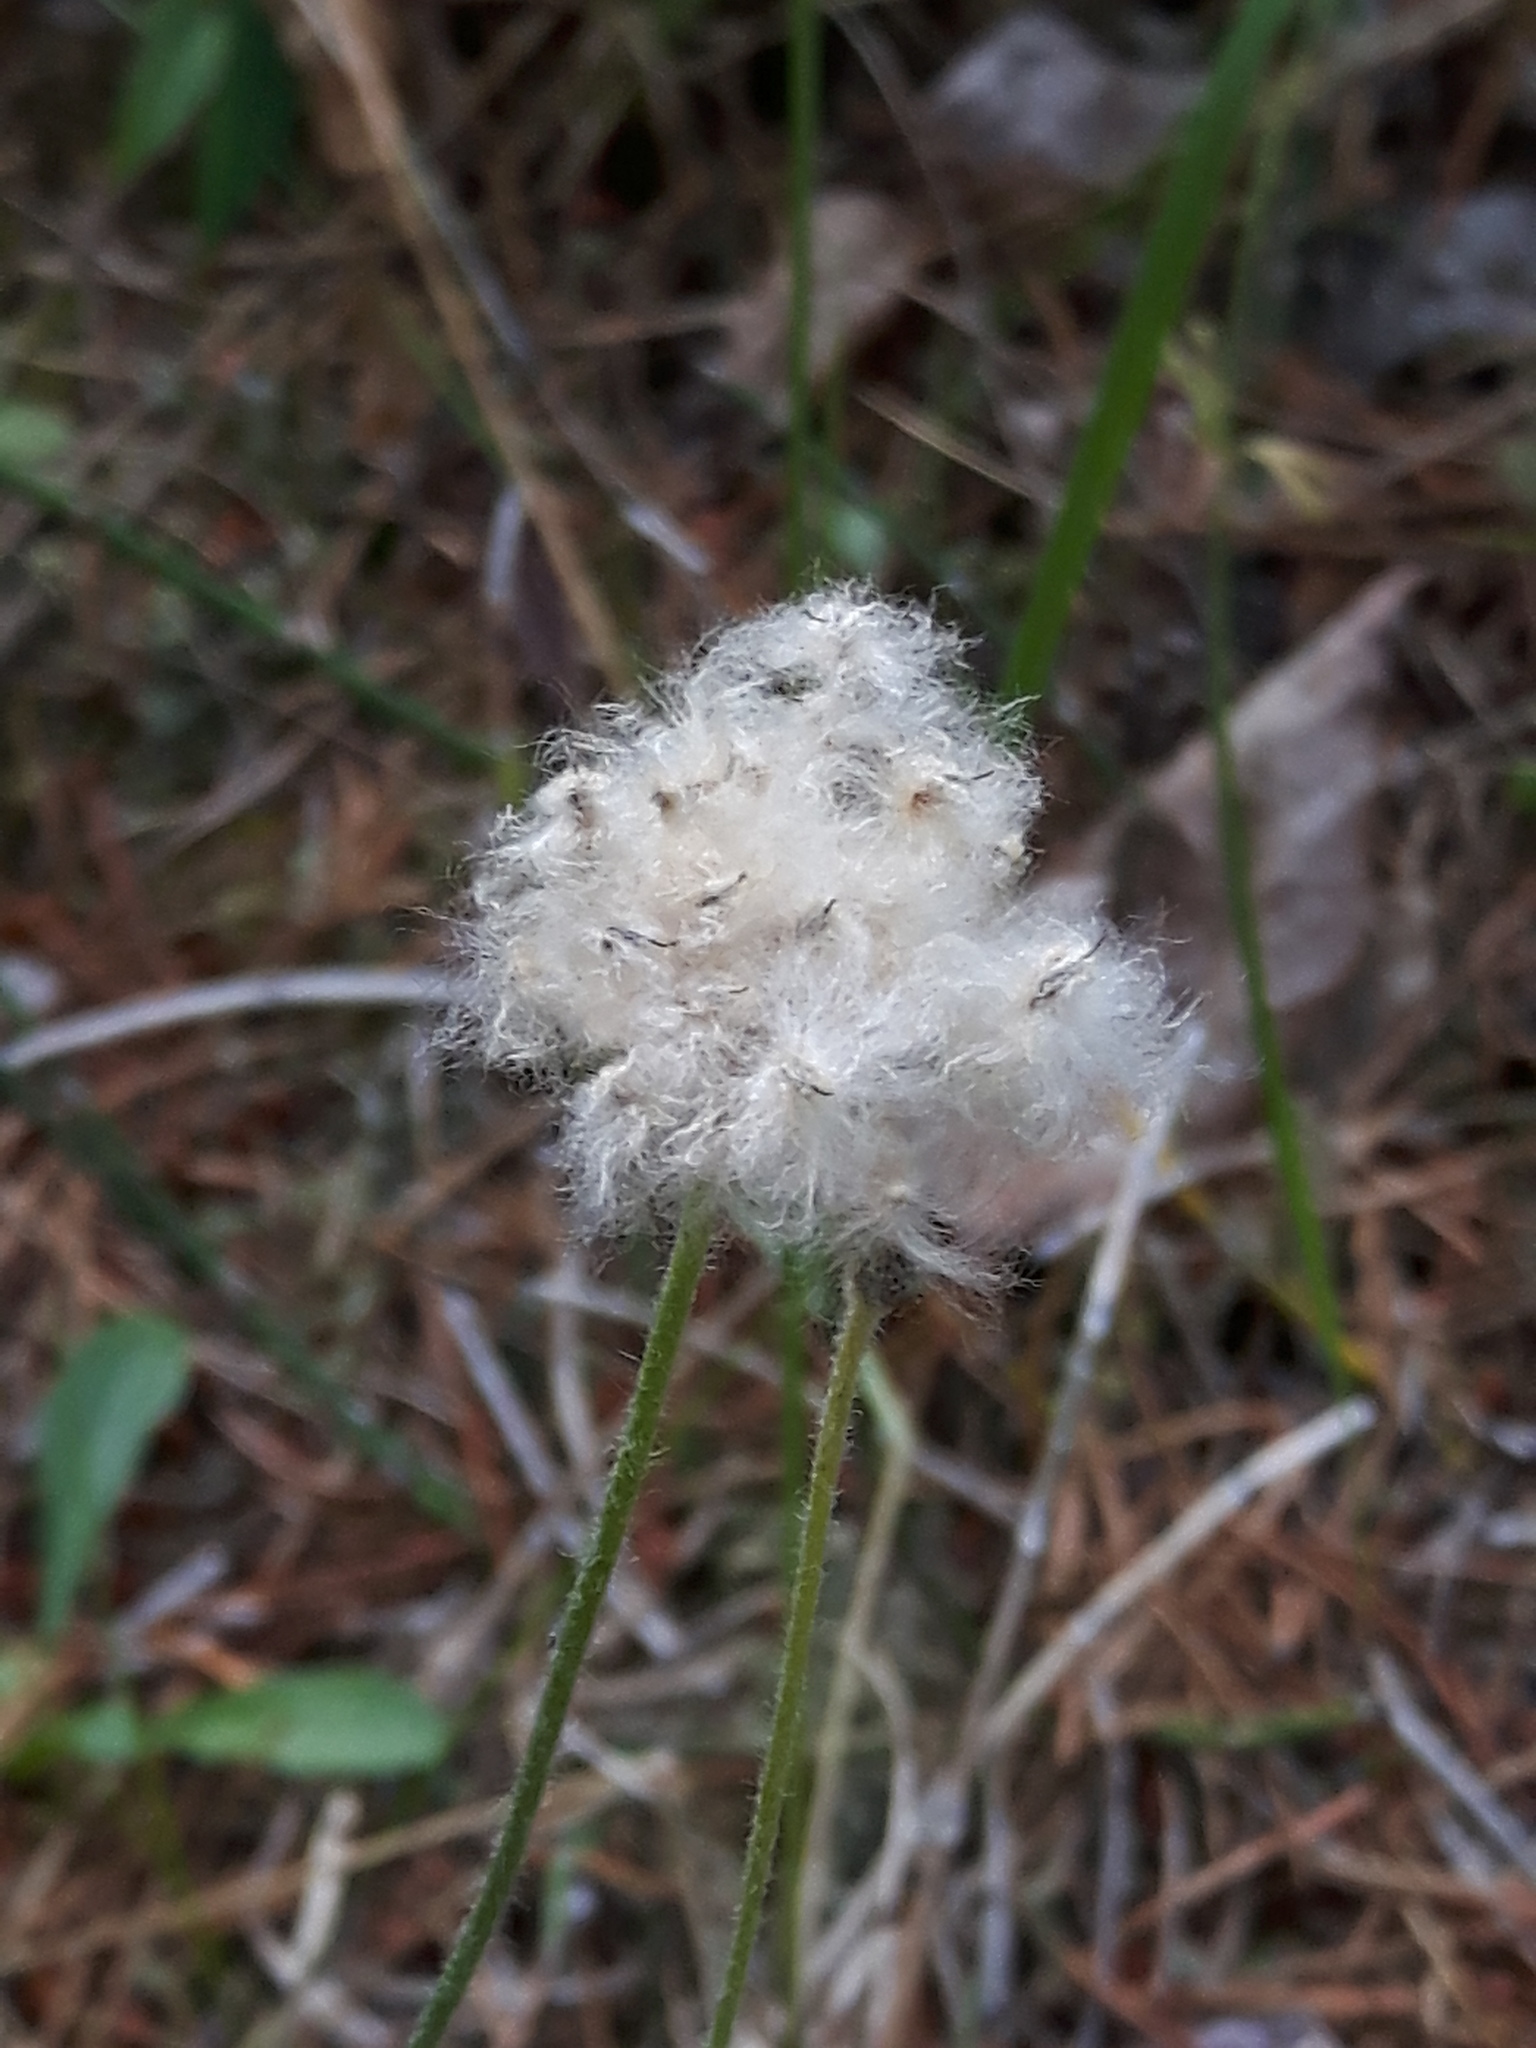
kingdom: Plantae
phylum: Tracheophyta
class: Magnoliopsida
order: Ranunculales
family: Ranunculaceae
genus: Anemone
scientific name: Anemone multifida
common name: Bird's-foot anemone
